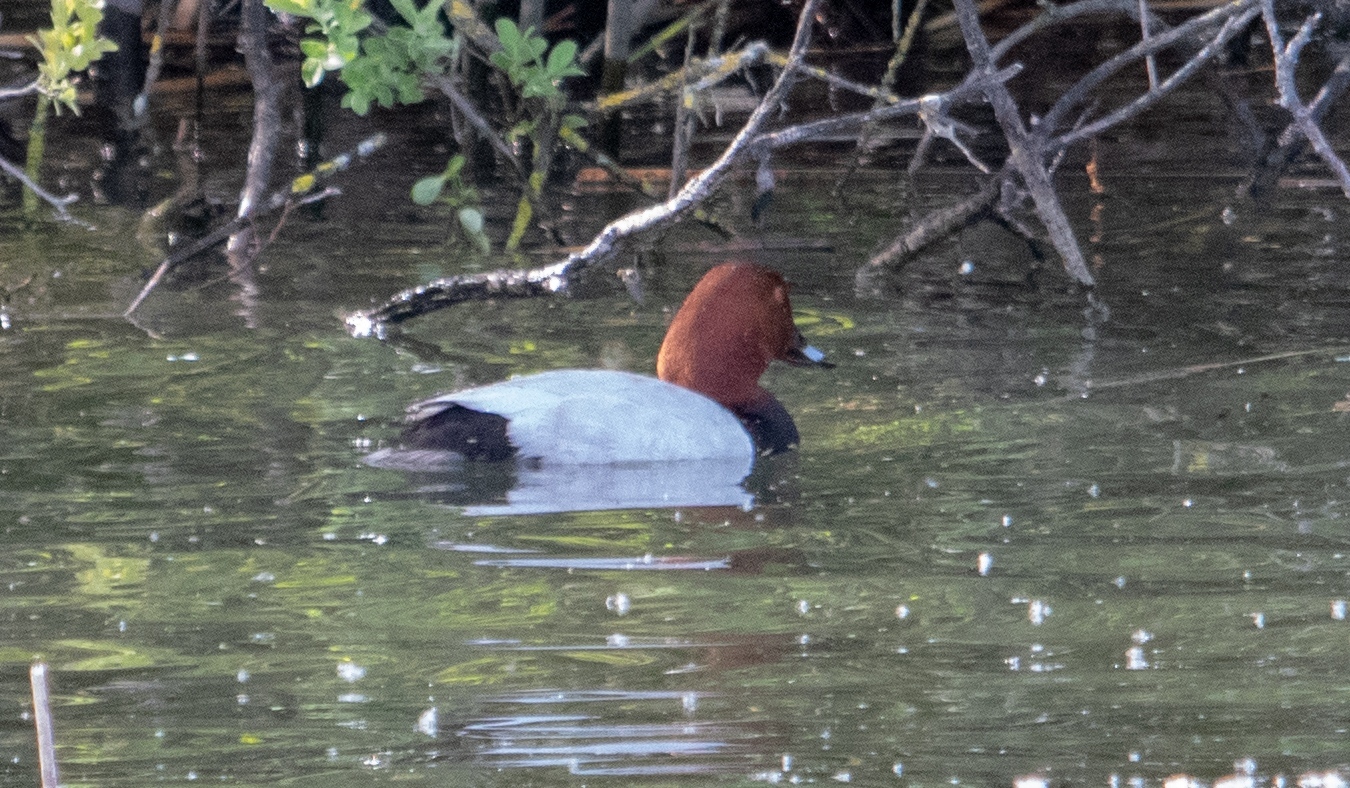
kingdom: Animalia
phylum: Chordata
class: Aves
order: Anseriformes
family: Anatidae
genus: Aythya
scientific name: Aythya ferina
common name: Common pochard
